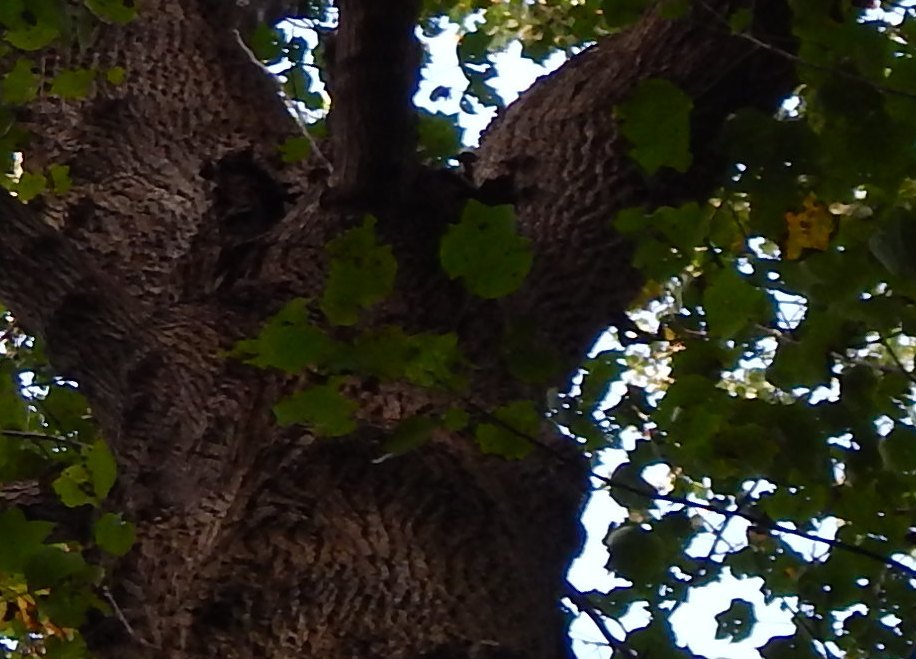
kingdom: Plantae
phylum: Tracheophyta
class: Magnoliopsida
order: Magnoliales
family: Magnoliaceae
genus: Liriodendron
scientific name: Liriodendron tulipifera
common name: Tulip tree
